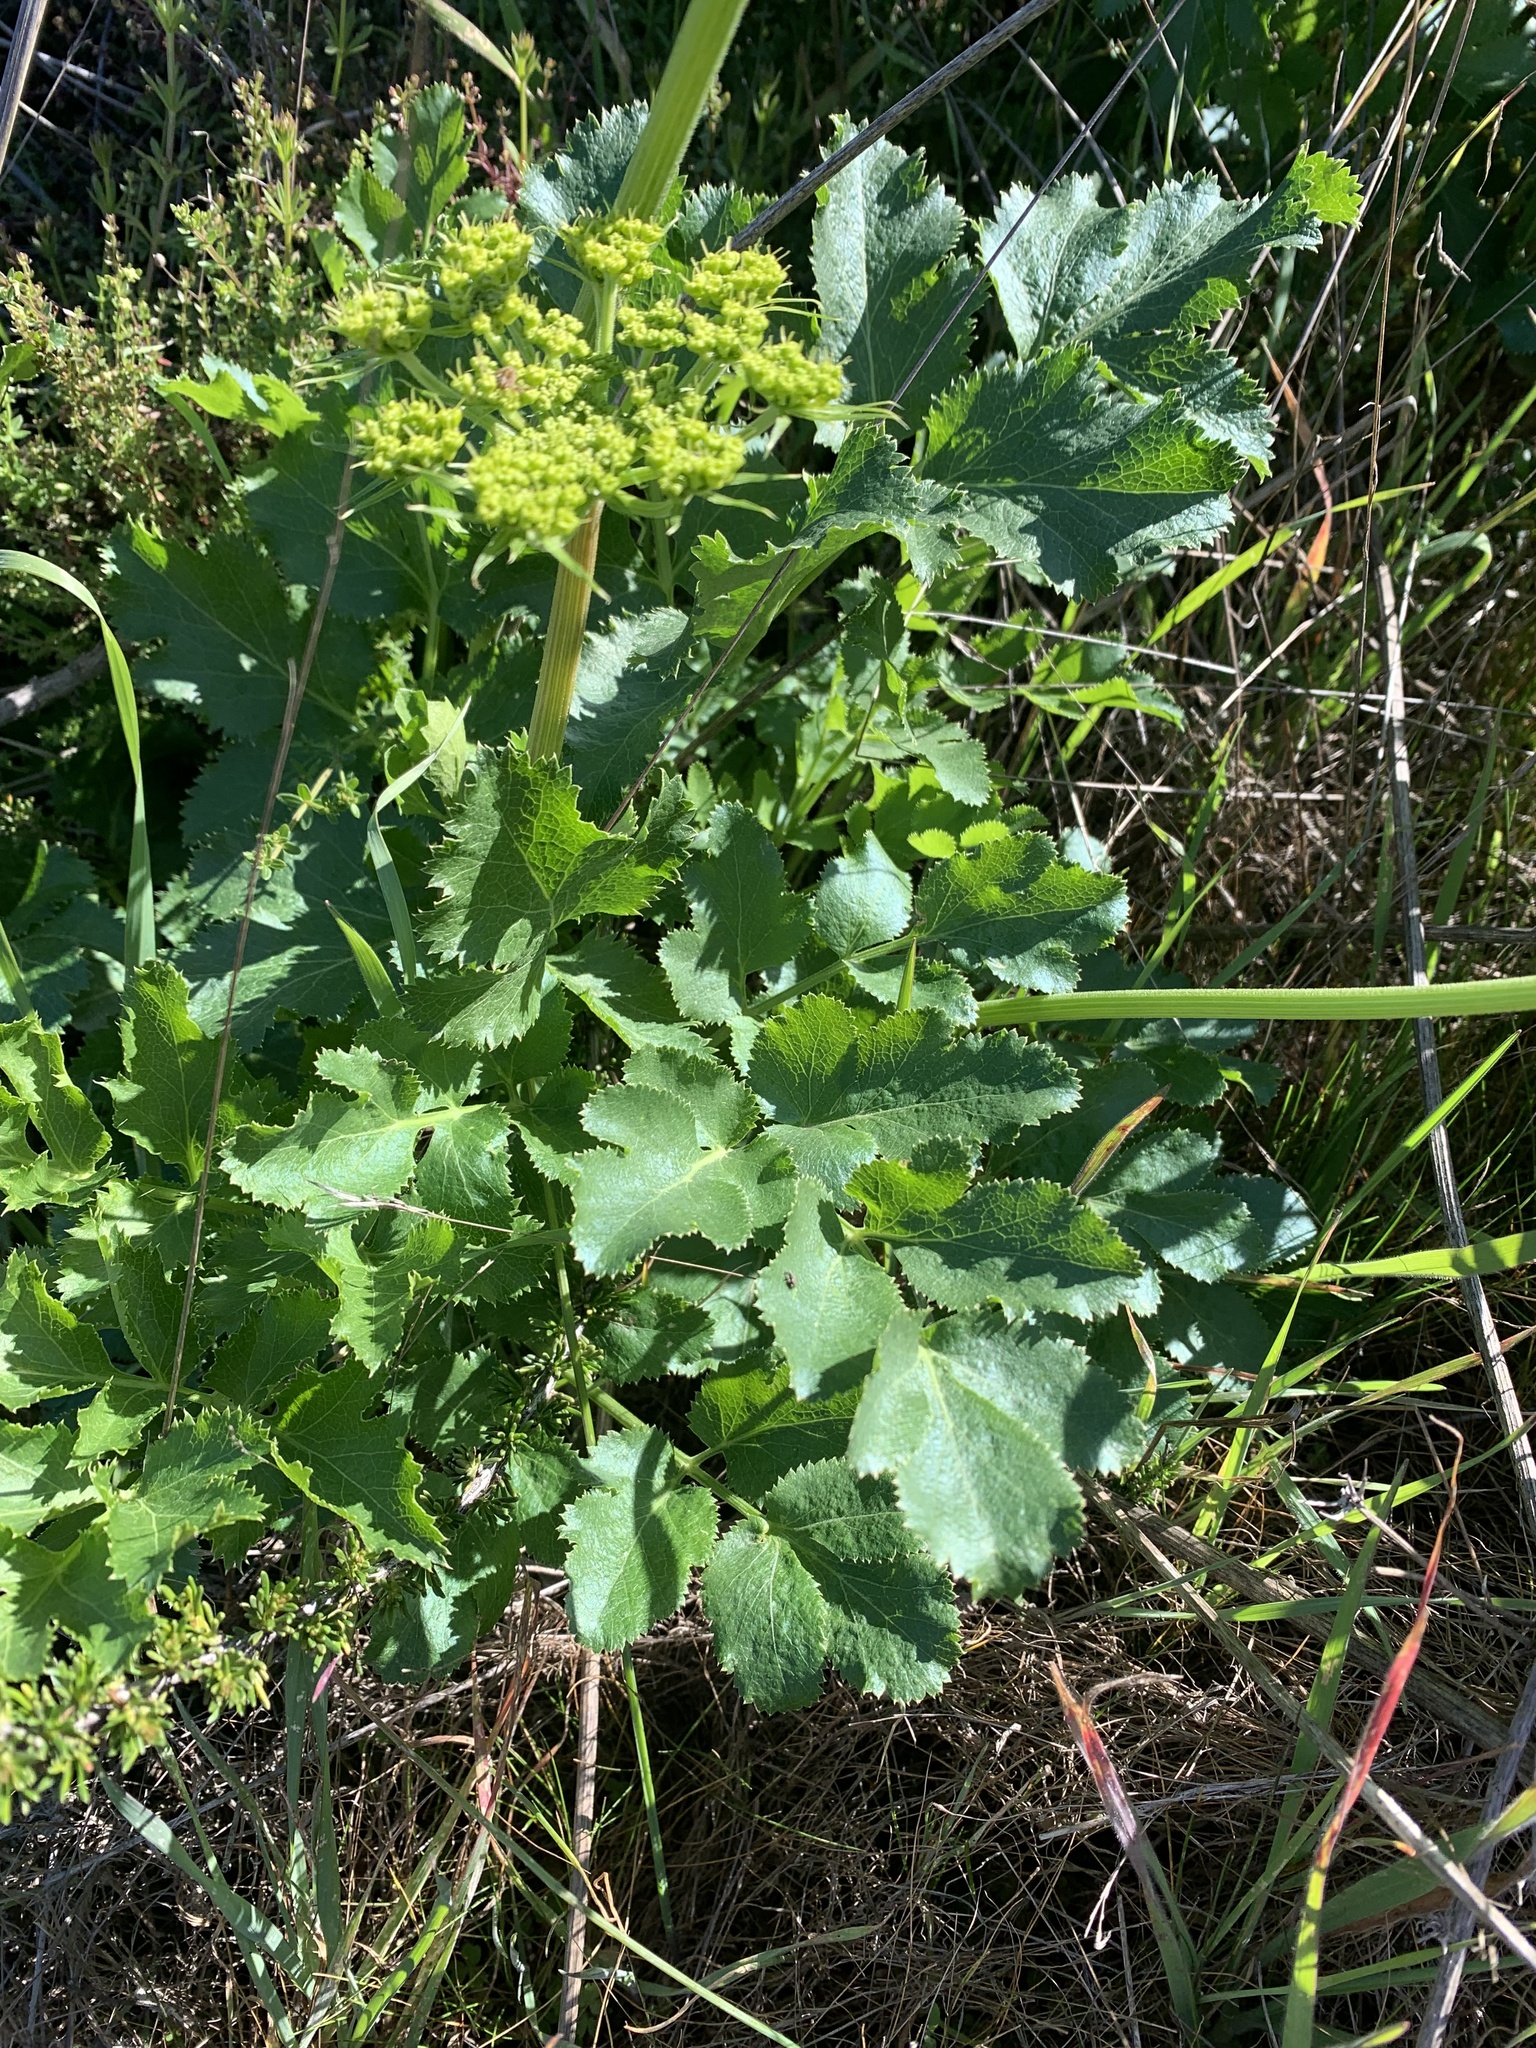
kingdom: Plantae
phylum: Tracheophyta
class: Magnoliopsida
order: Apiales
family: Apiaceae
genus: Tauschia
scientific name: Tauschia hartwegii
